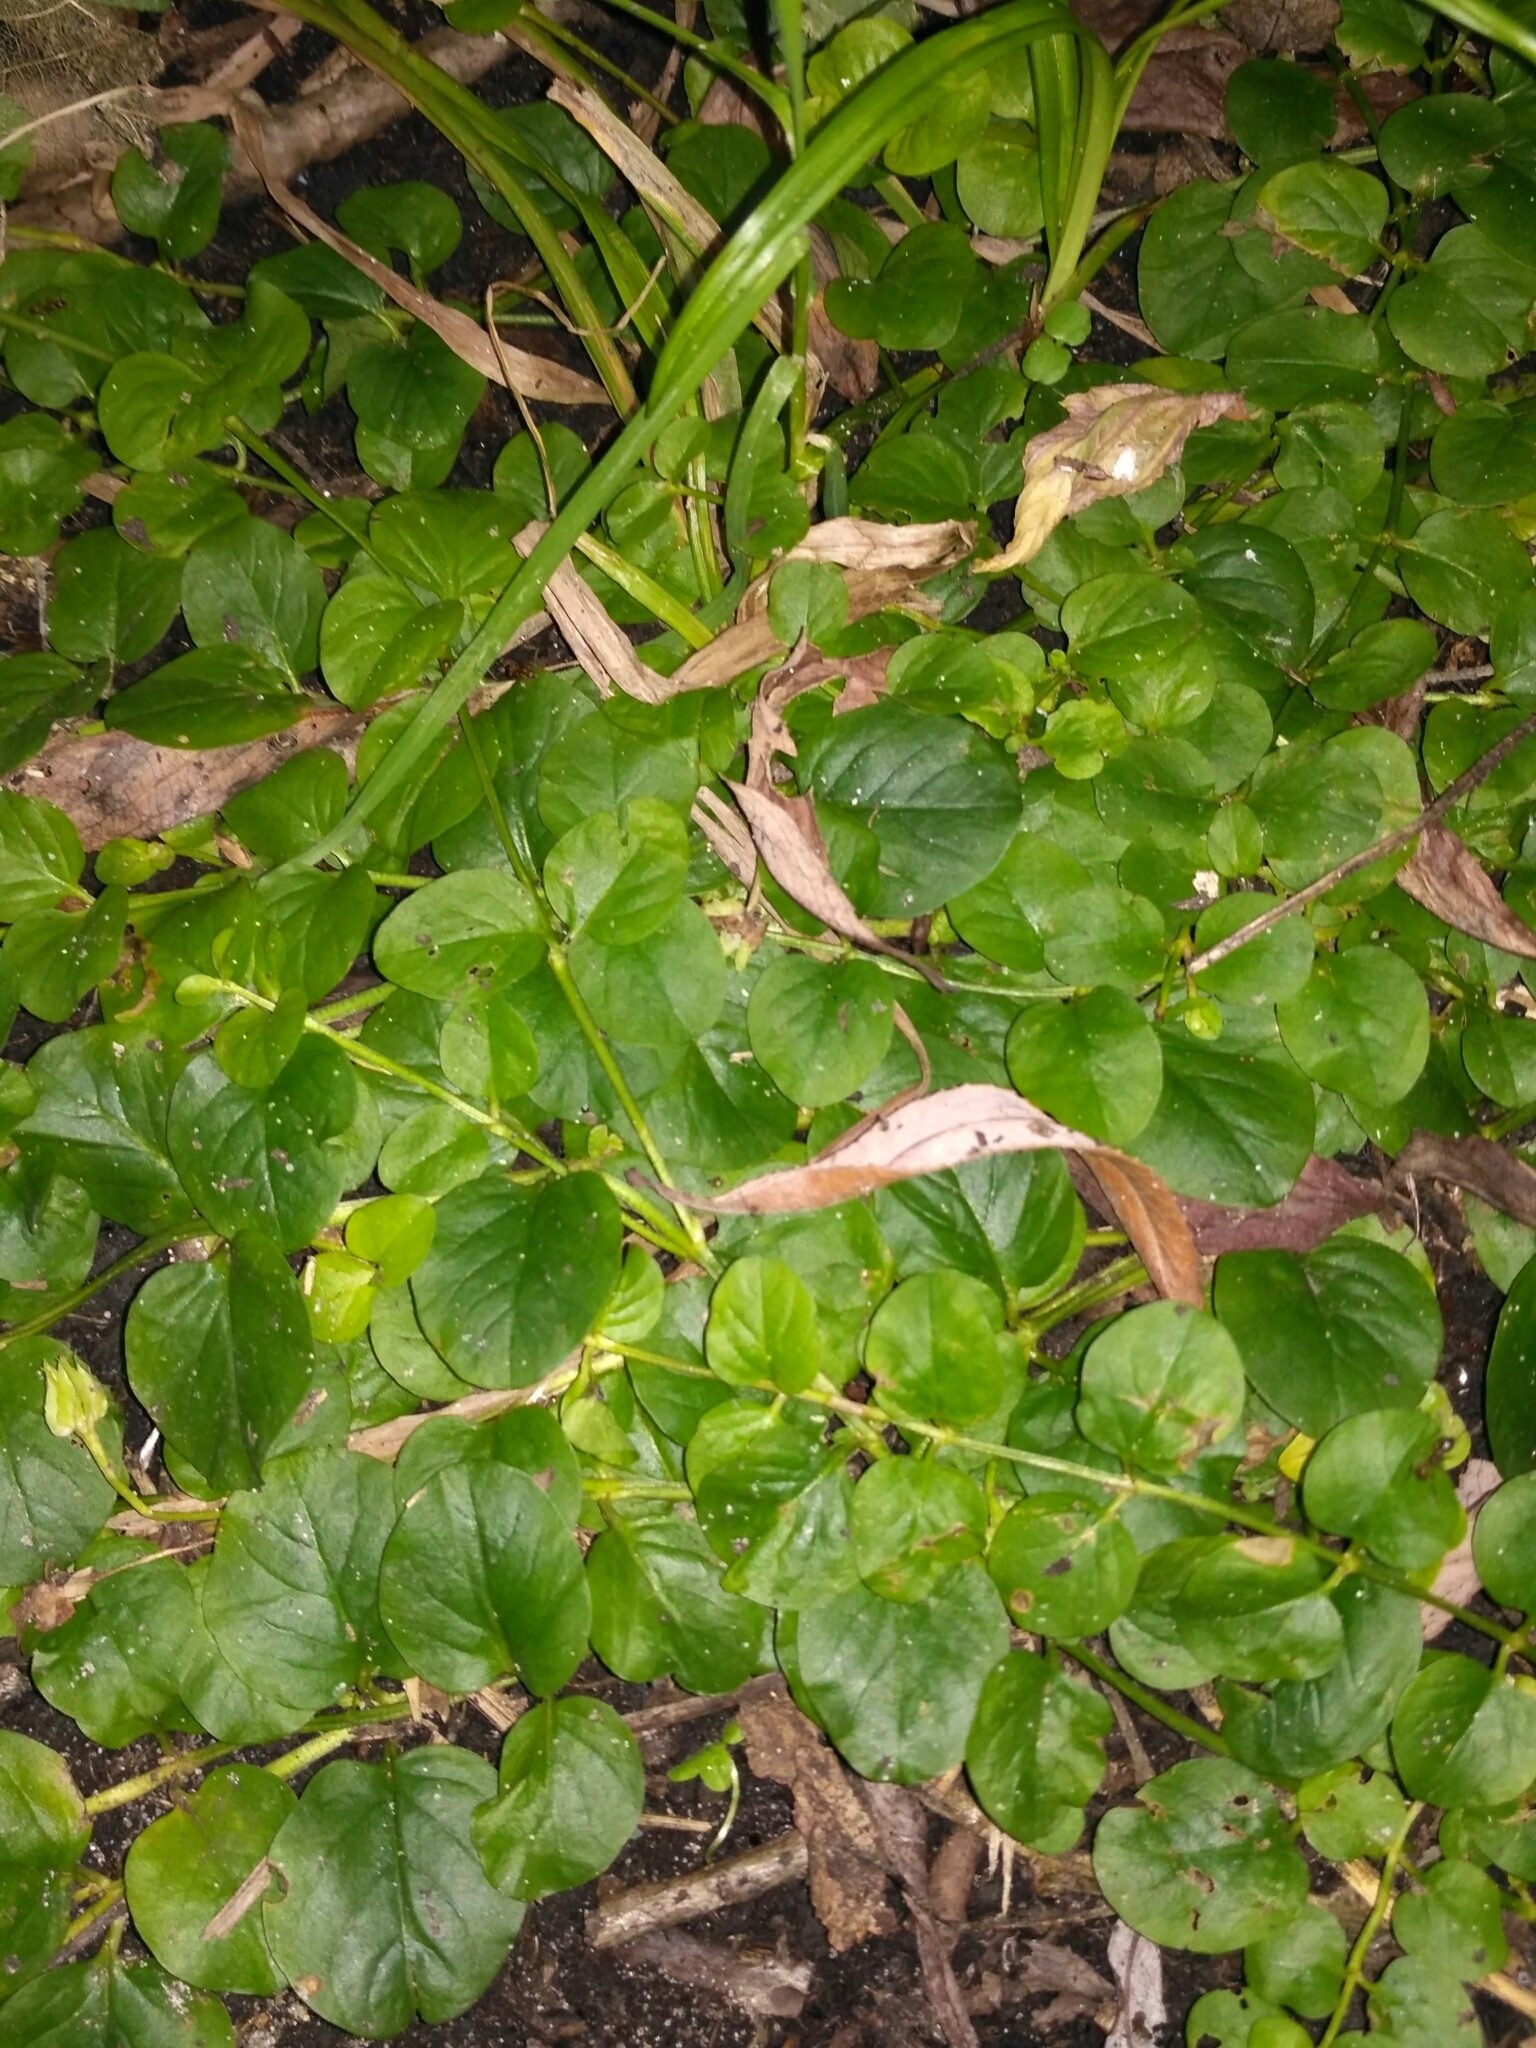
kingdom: Plantae
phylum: Tracheophyta
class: Magnoliopsida
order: Ericales
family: Primulaceae
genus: Lysimachia
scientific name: Lysimachia nummularia
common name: Moneywort
